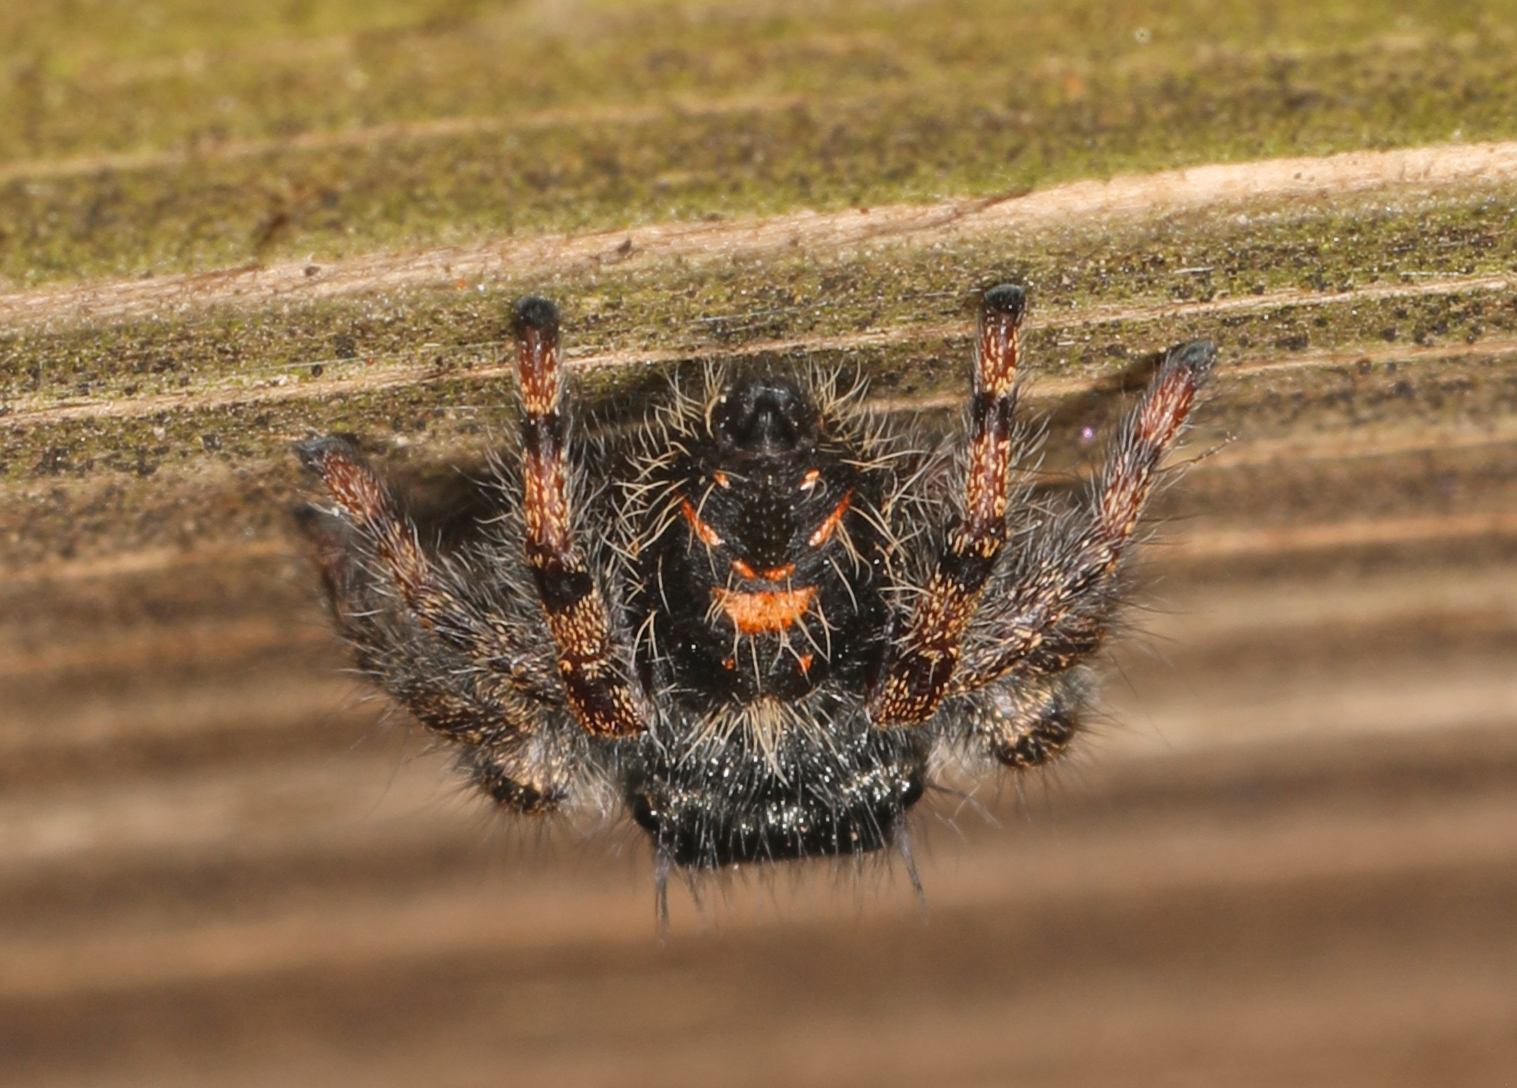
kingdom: Animalia
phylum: Arthropoda
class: Arachnida
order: Araneae
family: Salticidae
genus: Phidippus
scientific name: Phidippus audax
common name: Bold jumper
